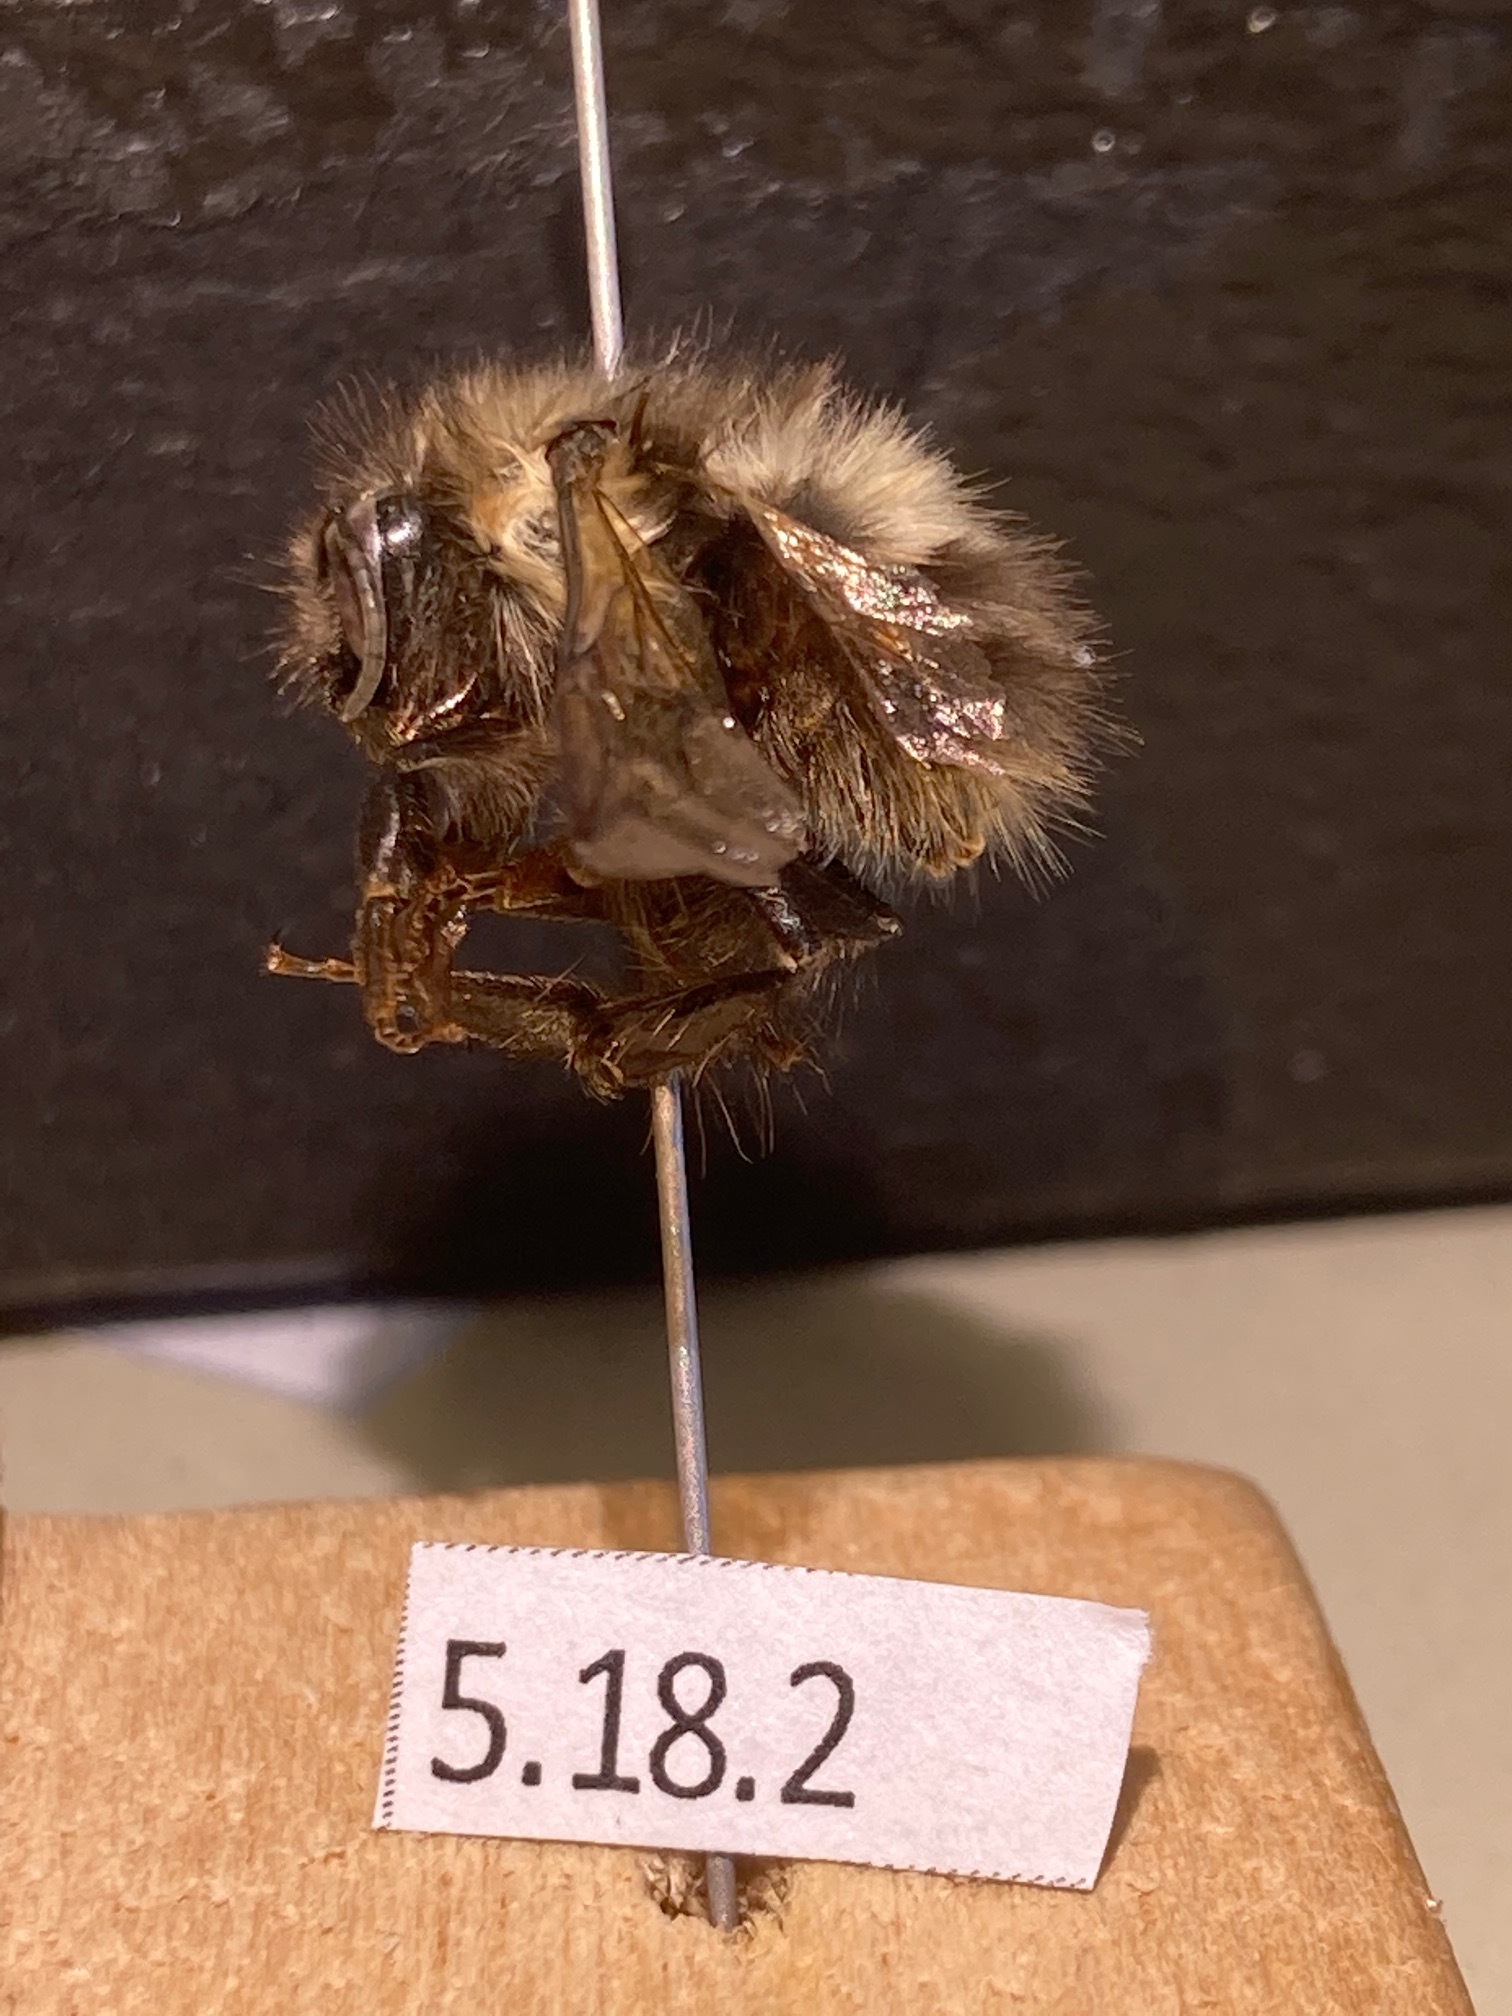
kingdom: Animalia
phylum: Arthropoda
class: Insecta
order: Hymenoptera
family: Apidae
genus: Bombus
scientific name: Bombus sitkensis
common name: Sitka bumble bee
